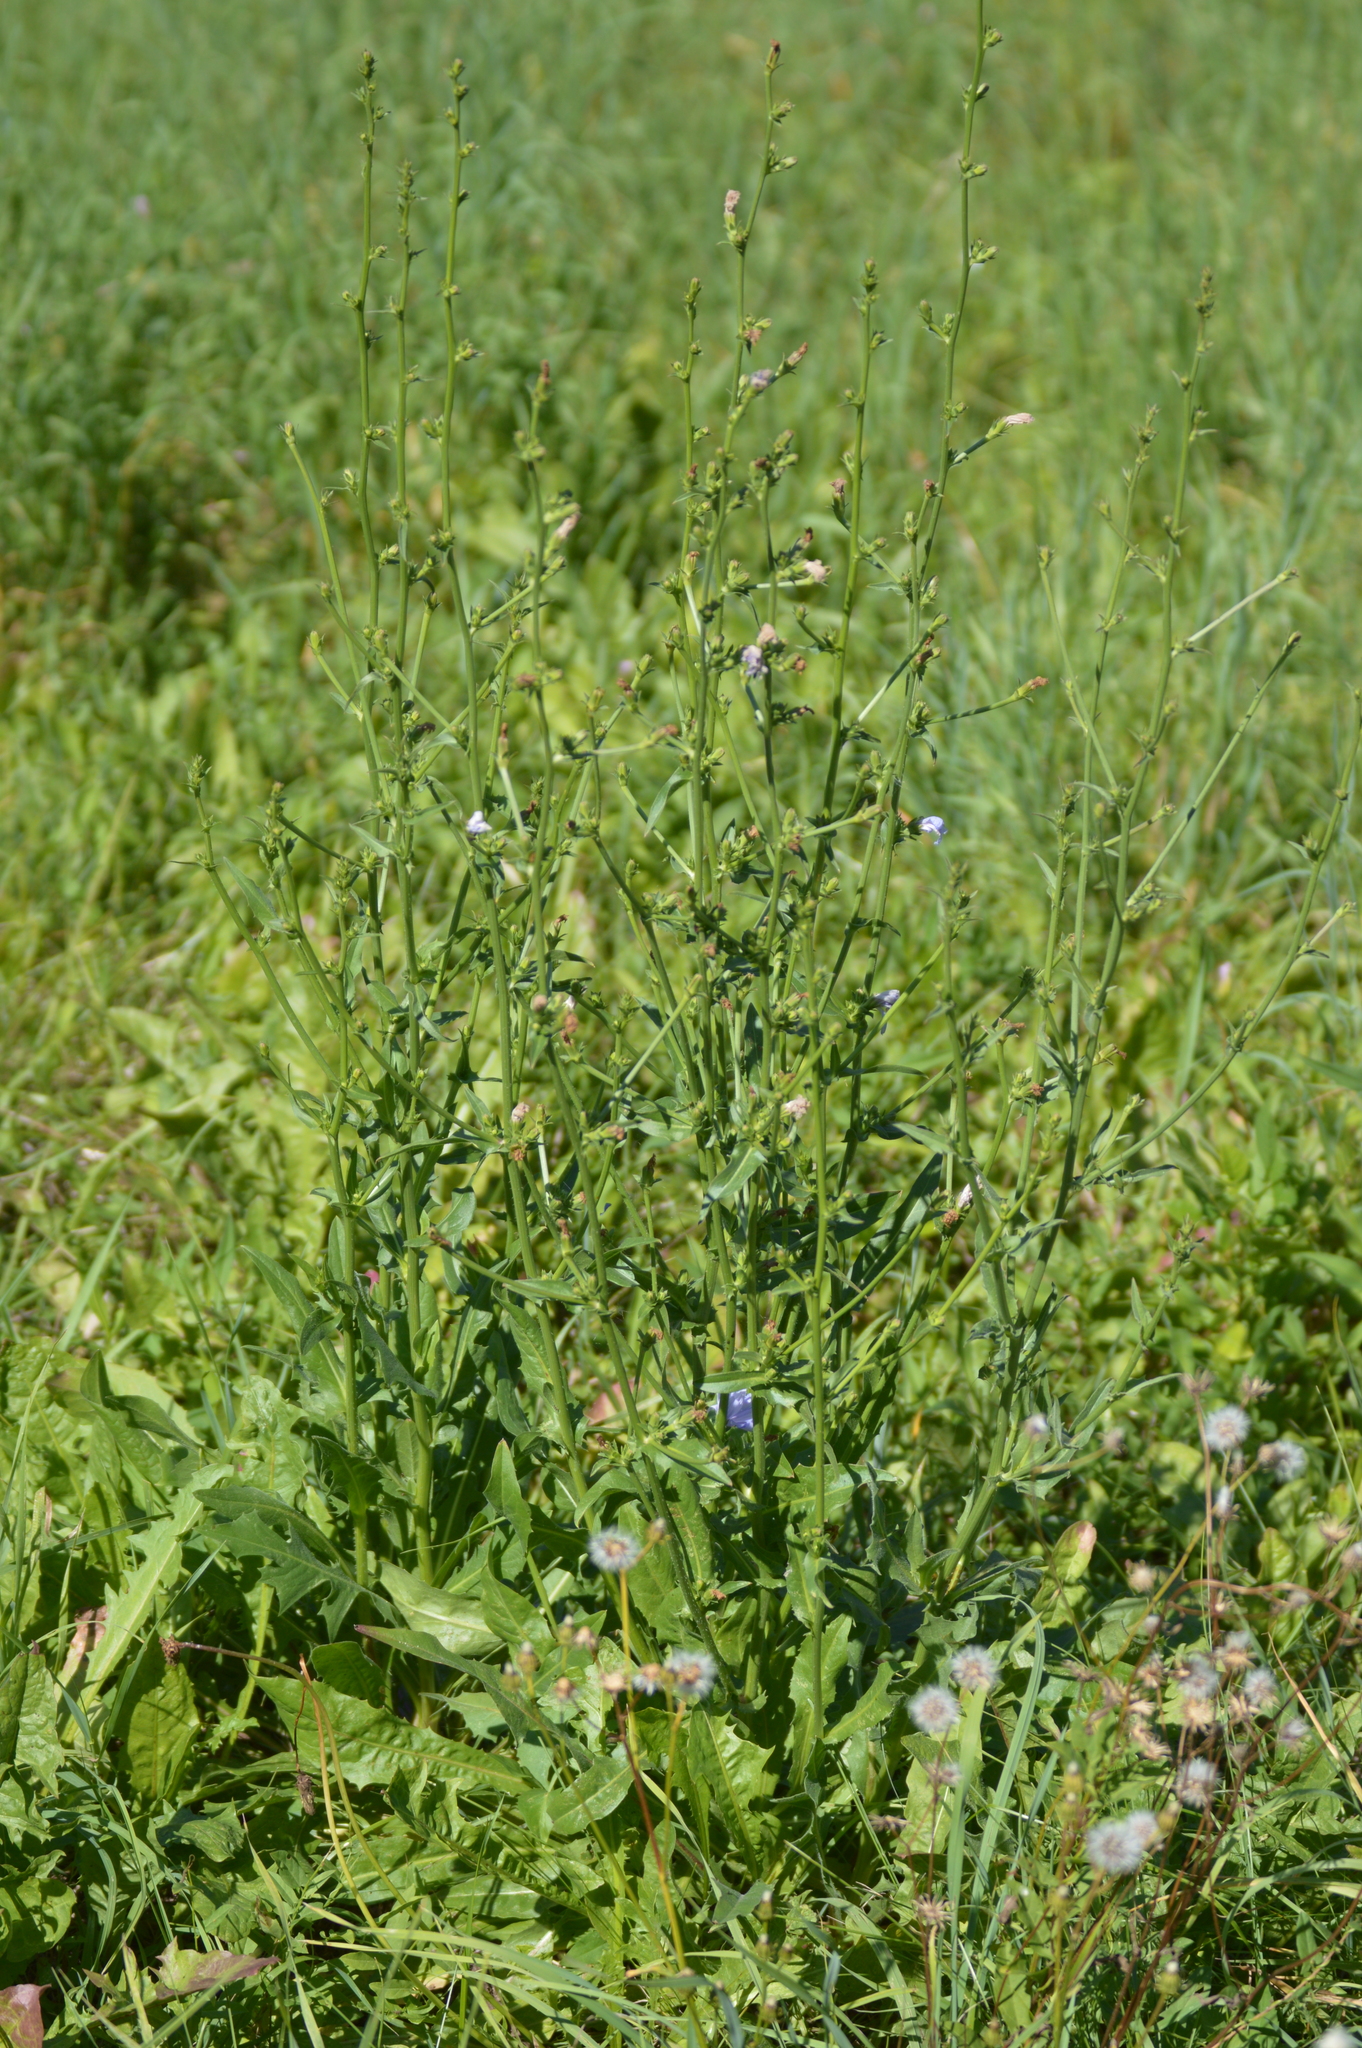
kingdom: Plantae
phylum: Tracheophyta
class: Magnoliopsida
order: Asterales
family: Asteraceae
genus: Cichorium
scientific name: Cichorium intybus
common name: Chicory
